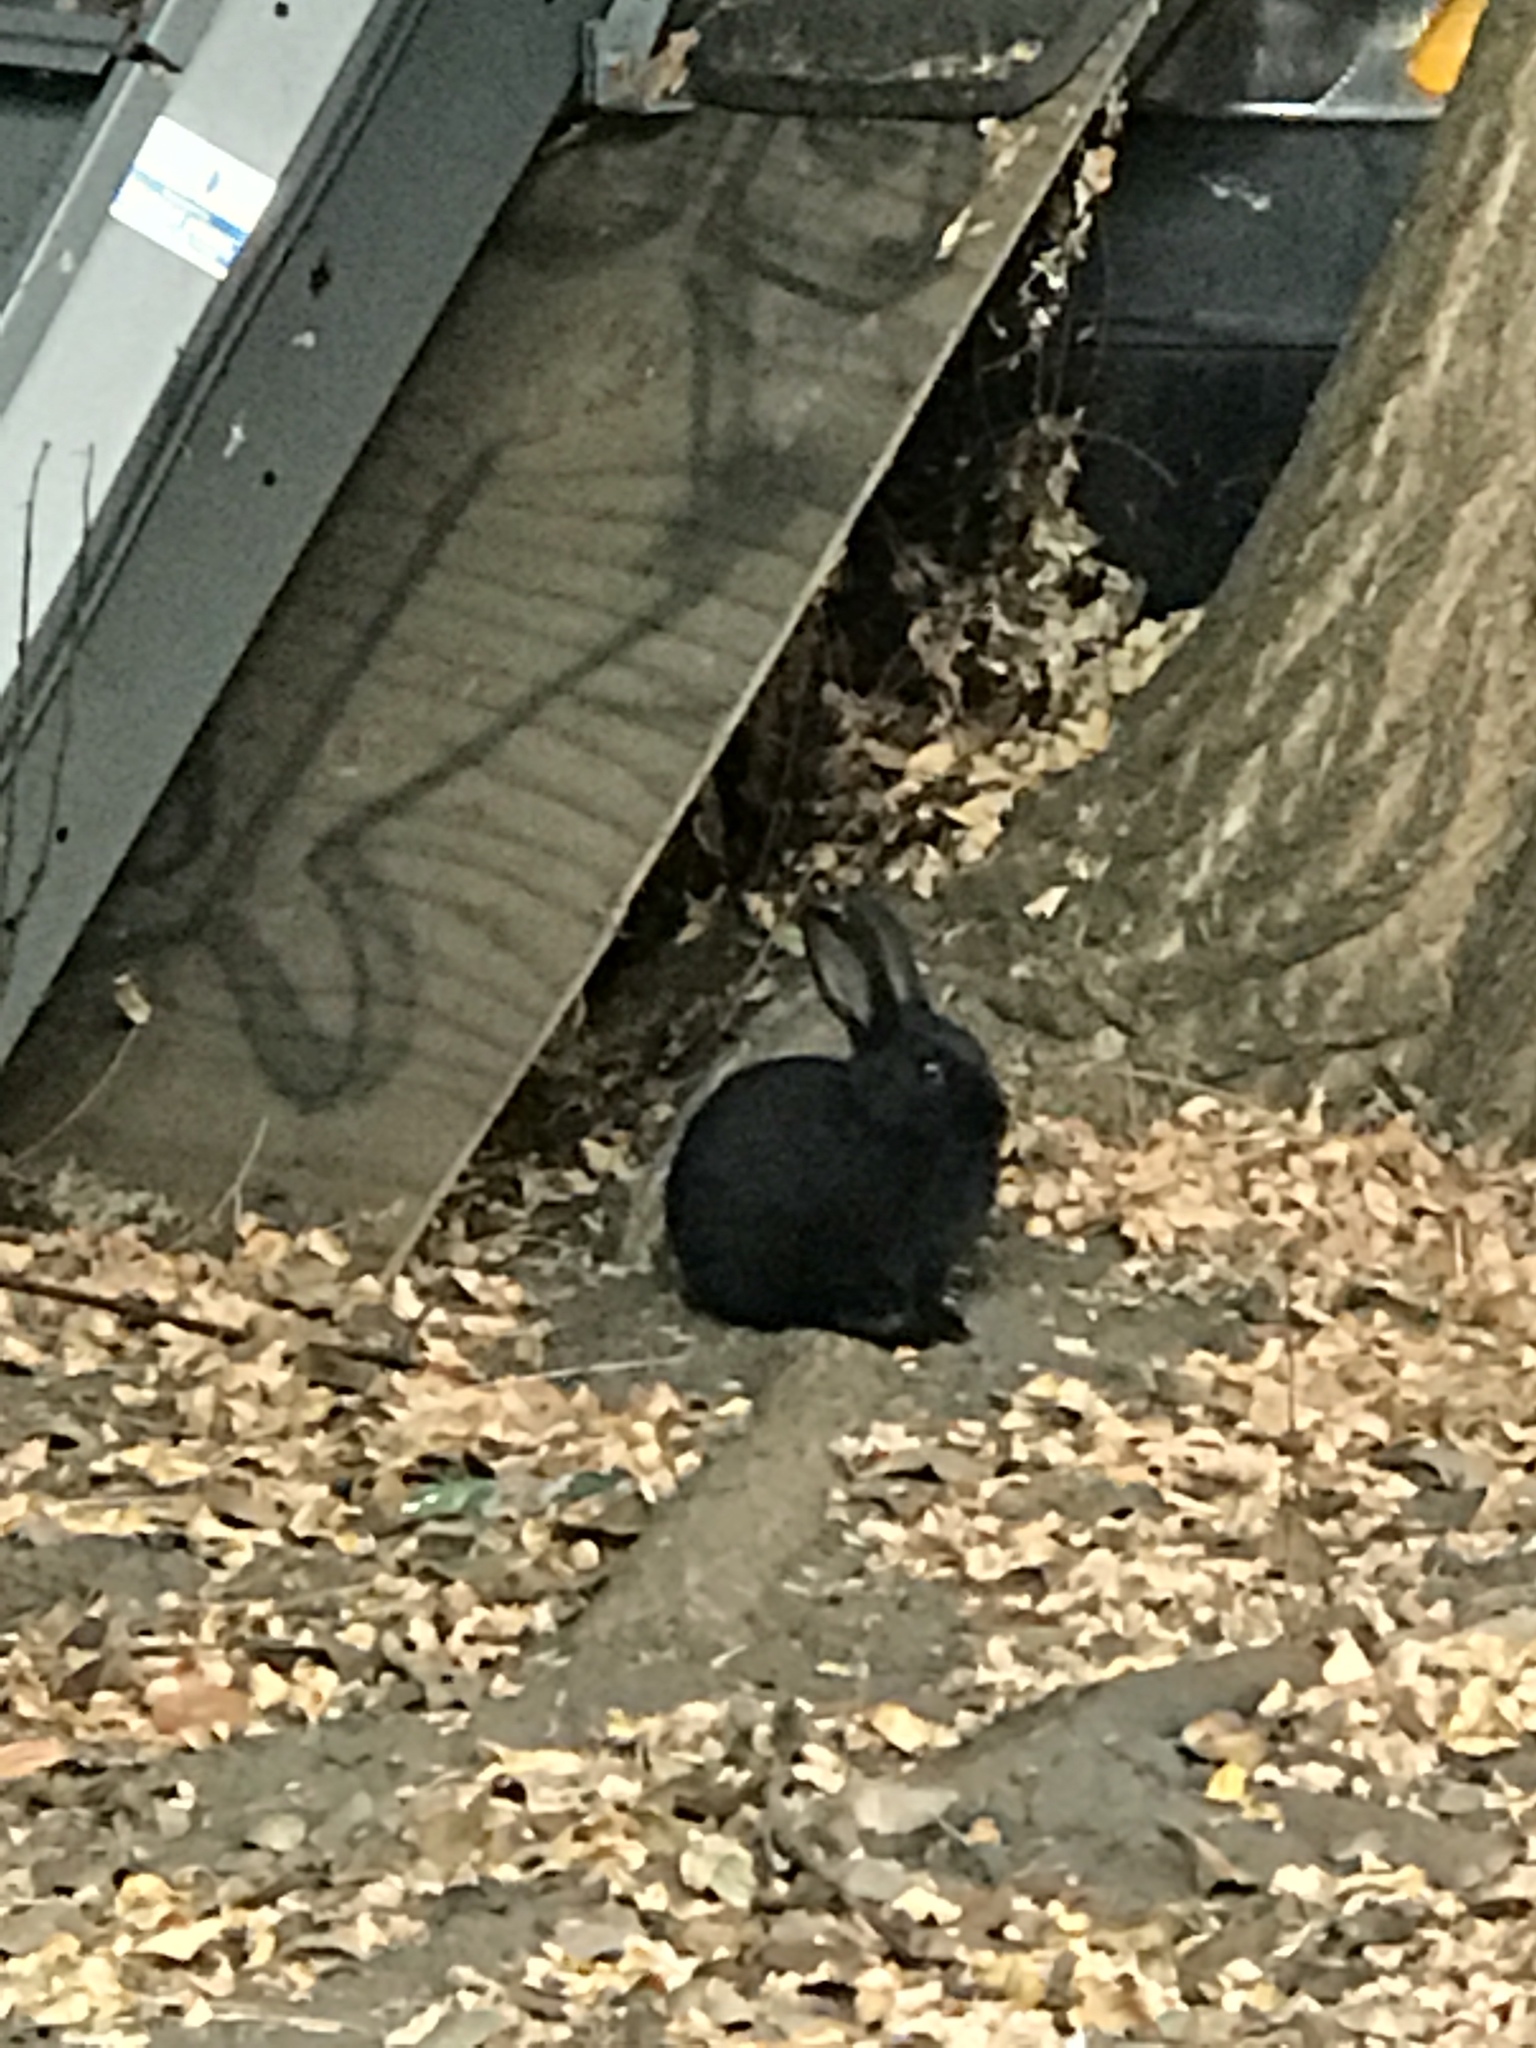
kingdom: Animalia
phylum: Chordata
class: Mammalia
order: Lagomorpha
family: Leporidae
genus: Oryctolagus
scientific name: Oryctolagus cuniculus
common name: European rabbit
